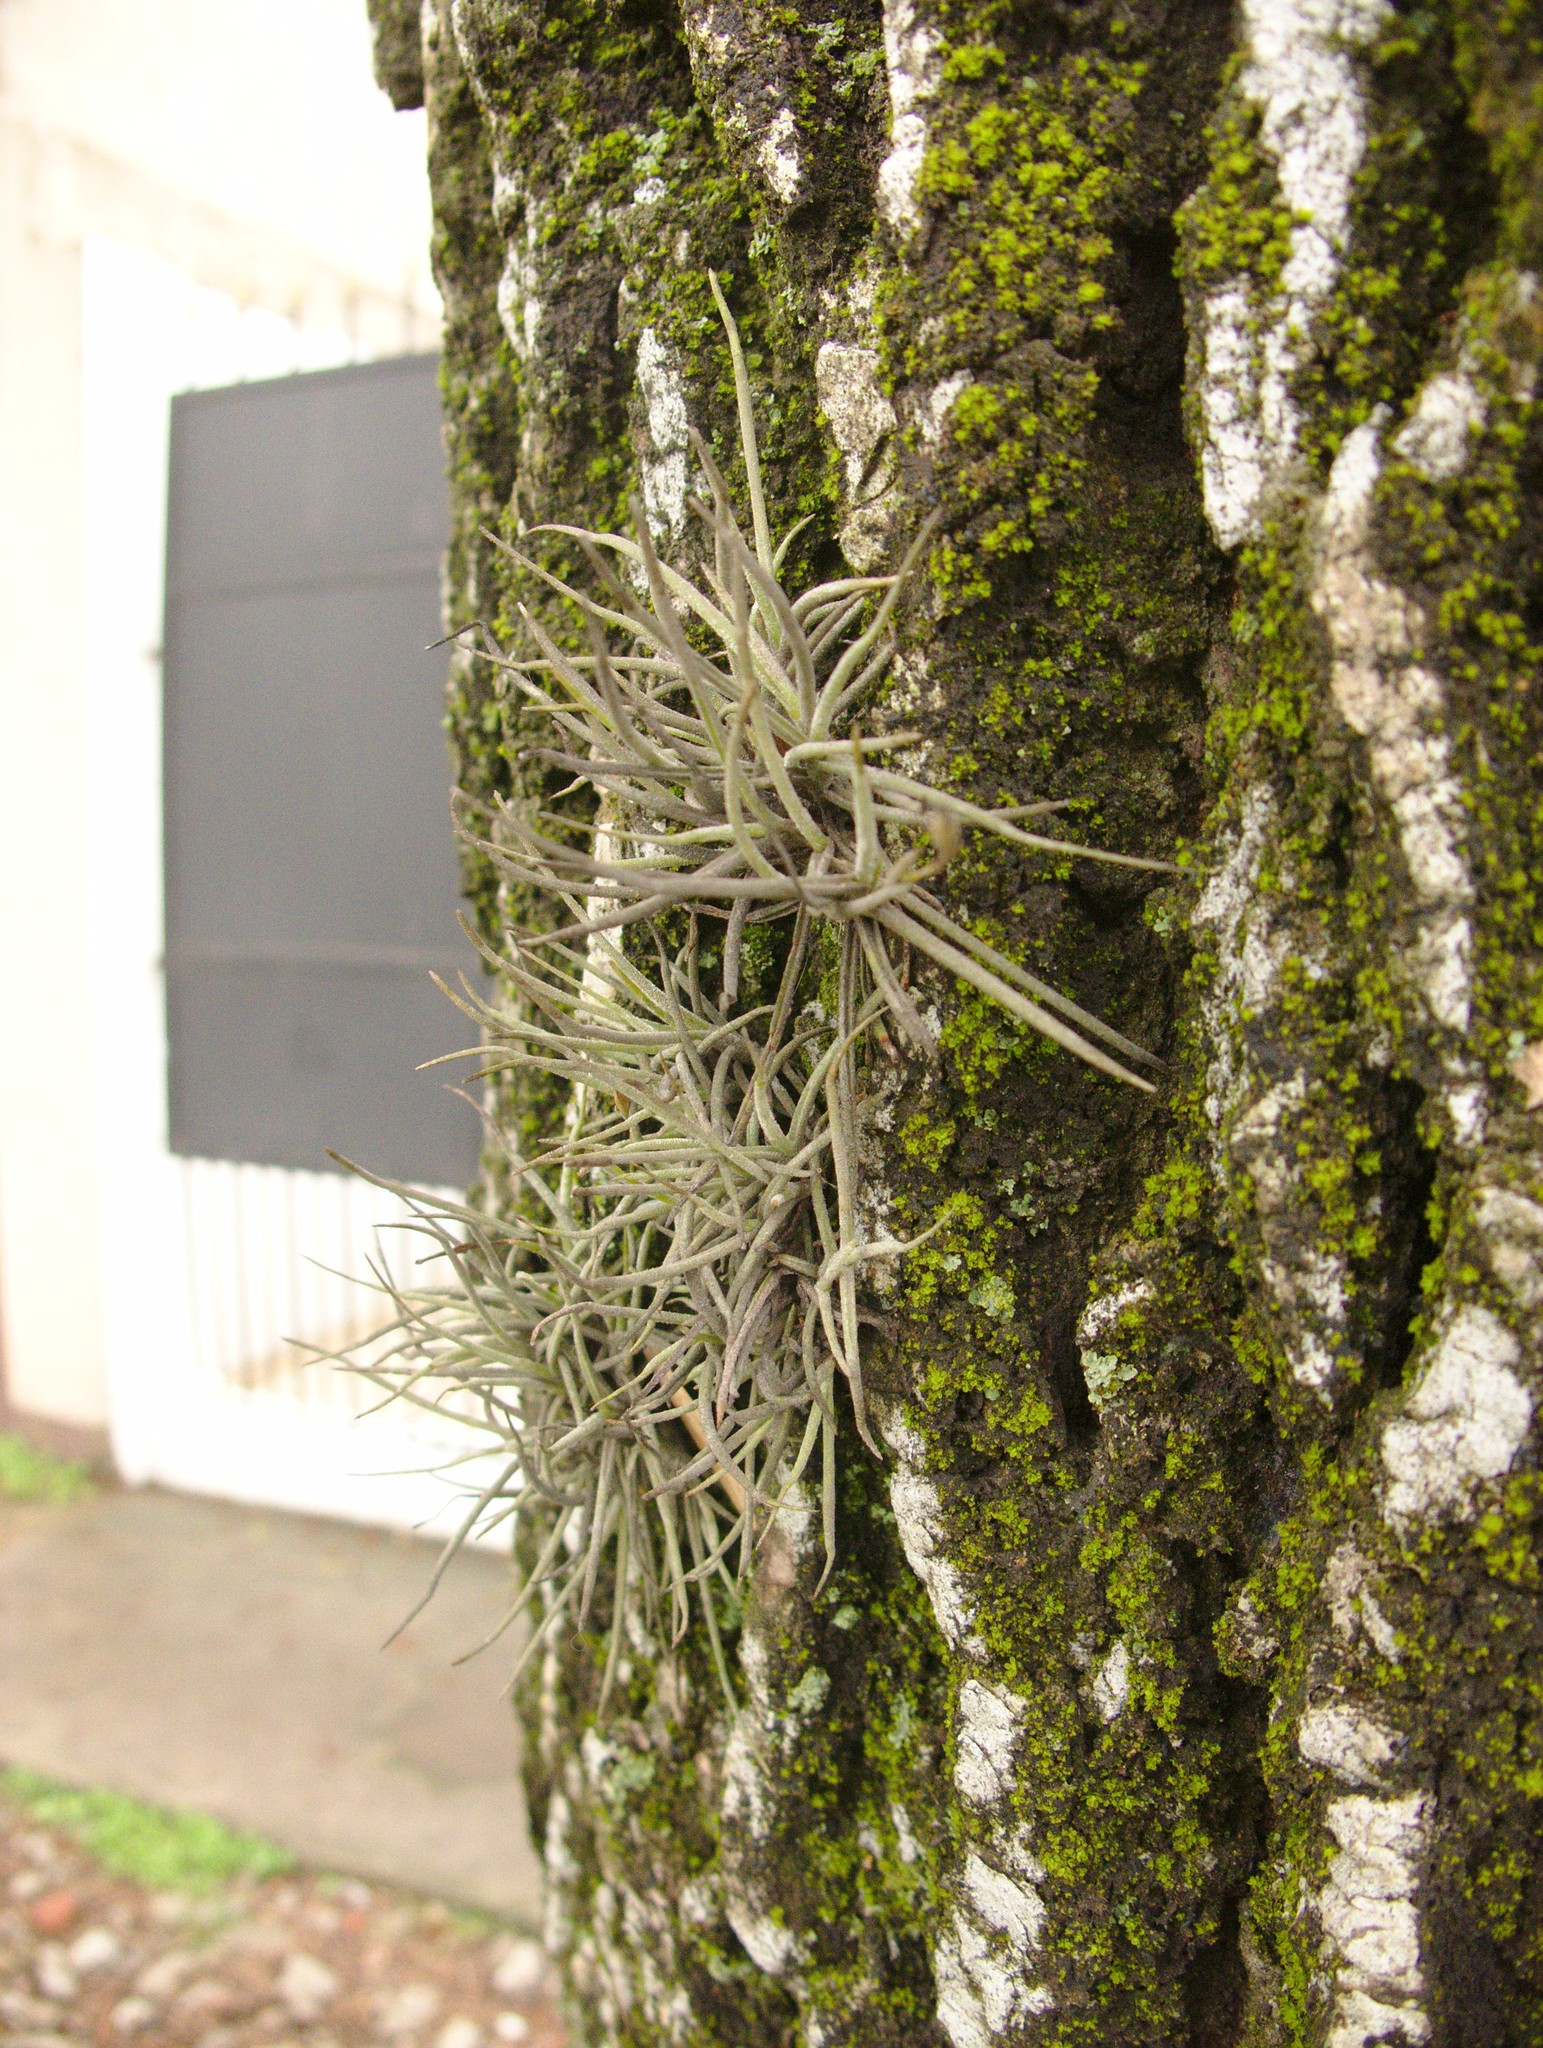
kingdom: Plantae
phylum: Tracheophyta
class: Liliopsida
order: Poales
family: Bromeliaceae
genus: Tillandsia
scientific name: Tillandsia recurvata
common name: Small ballmoss
